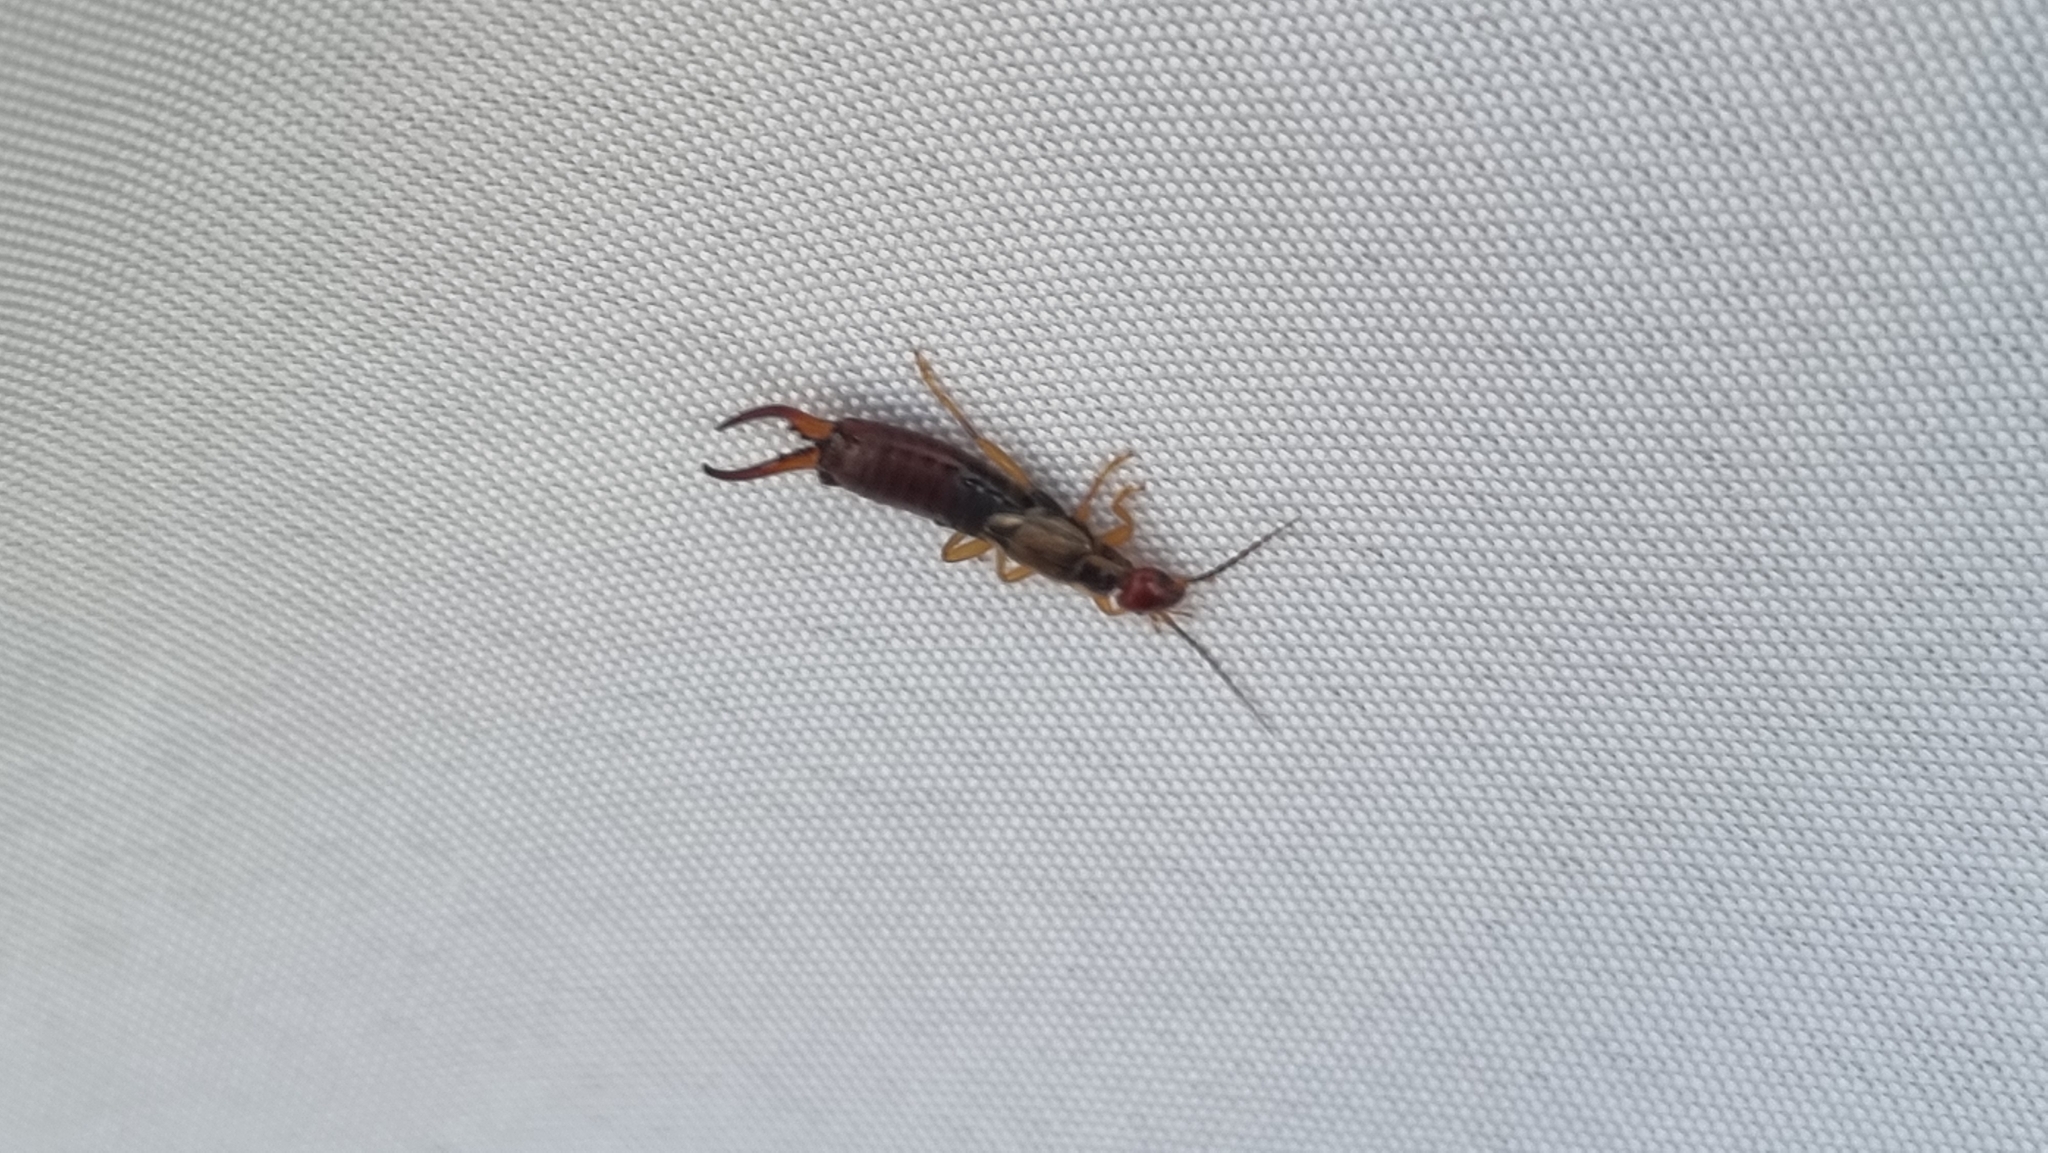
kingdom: Animalia
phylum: Arthropoda
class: Insecta
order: Dermaptera
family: Forficulidae
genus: Forficula
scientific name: Forficula
